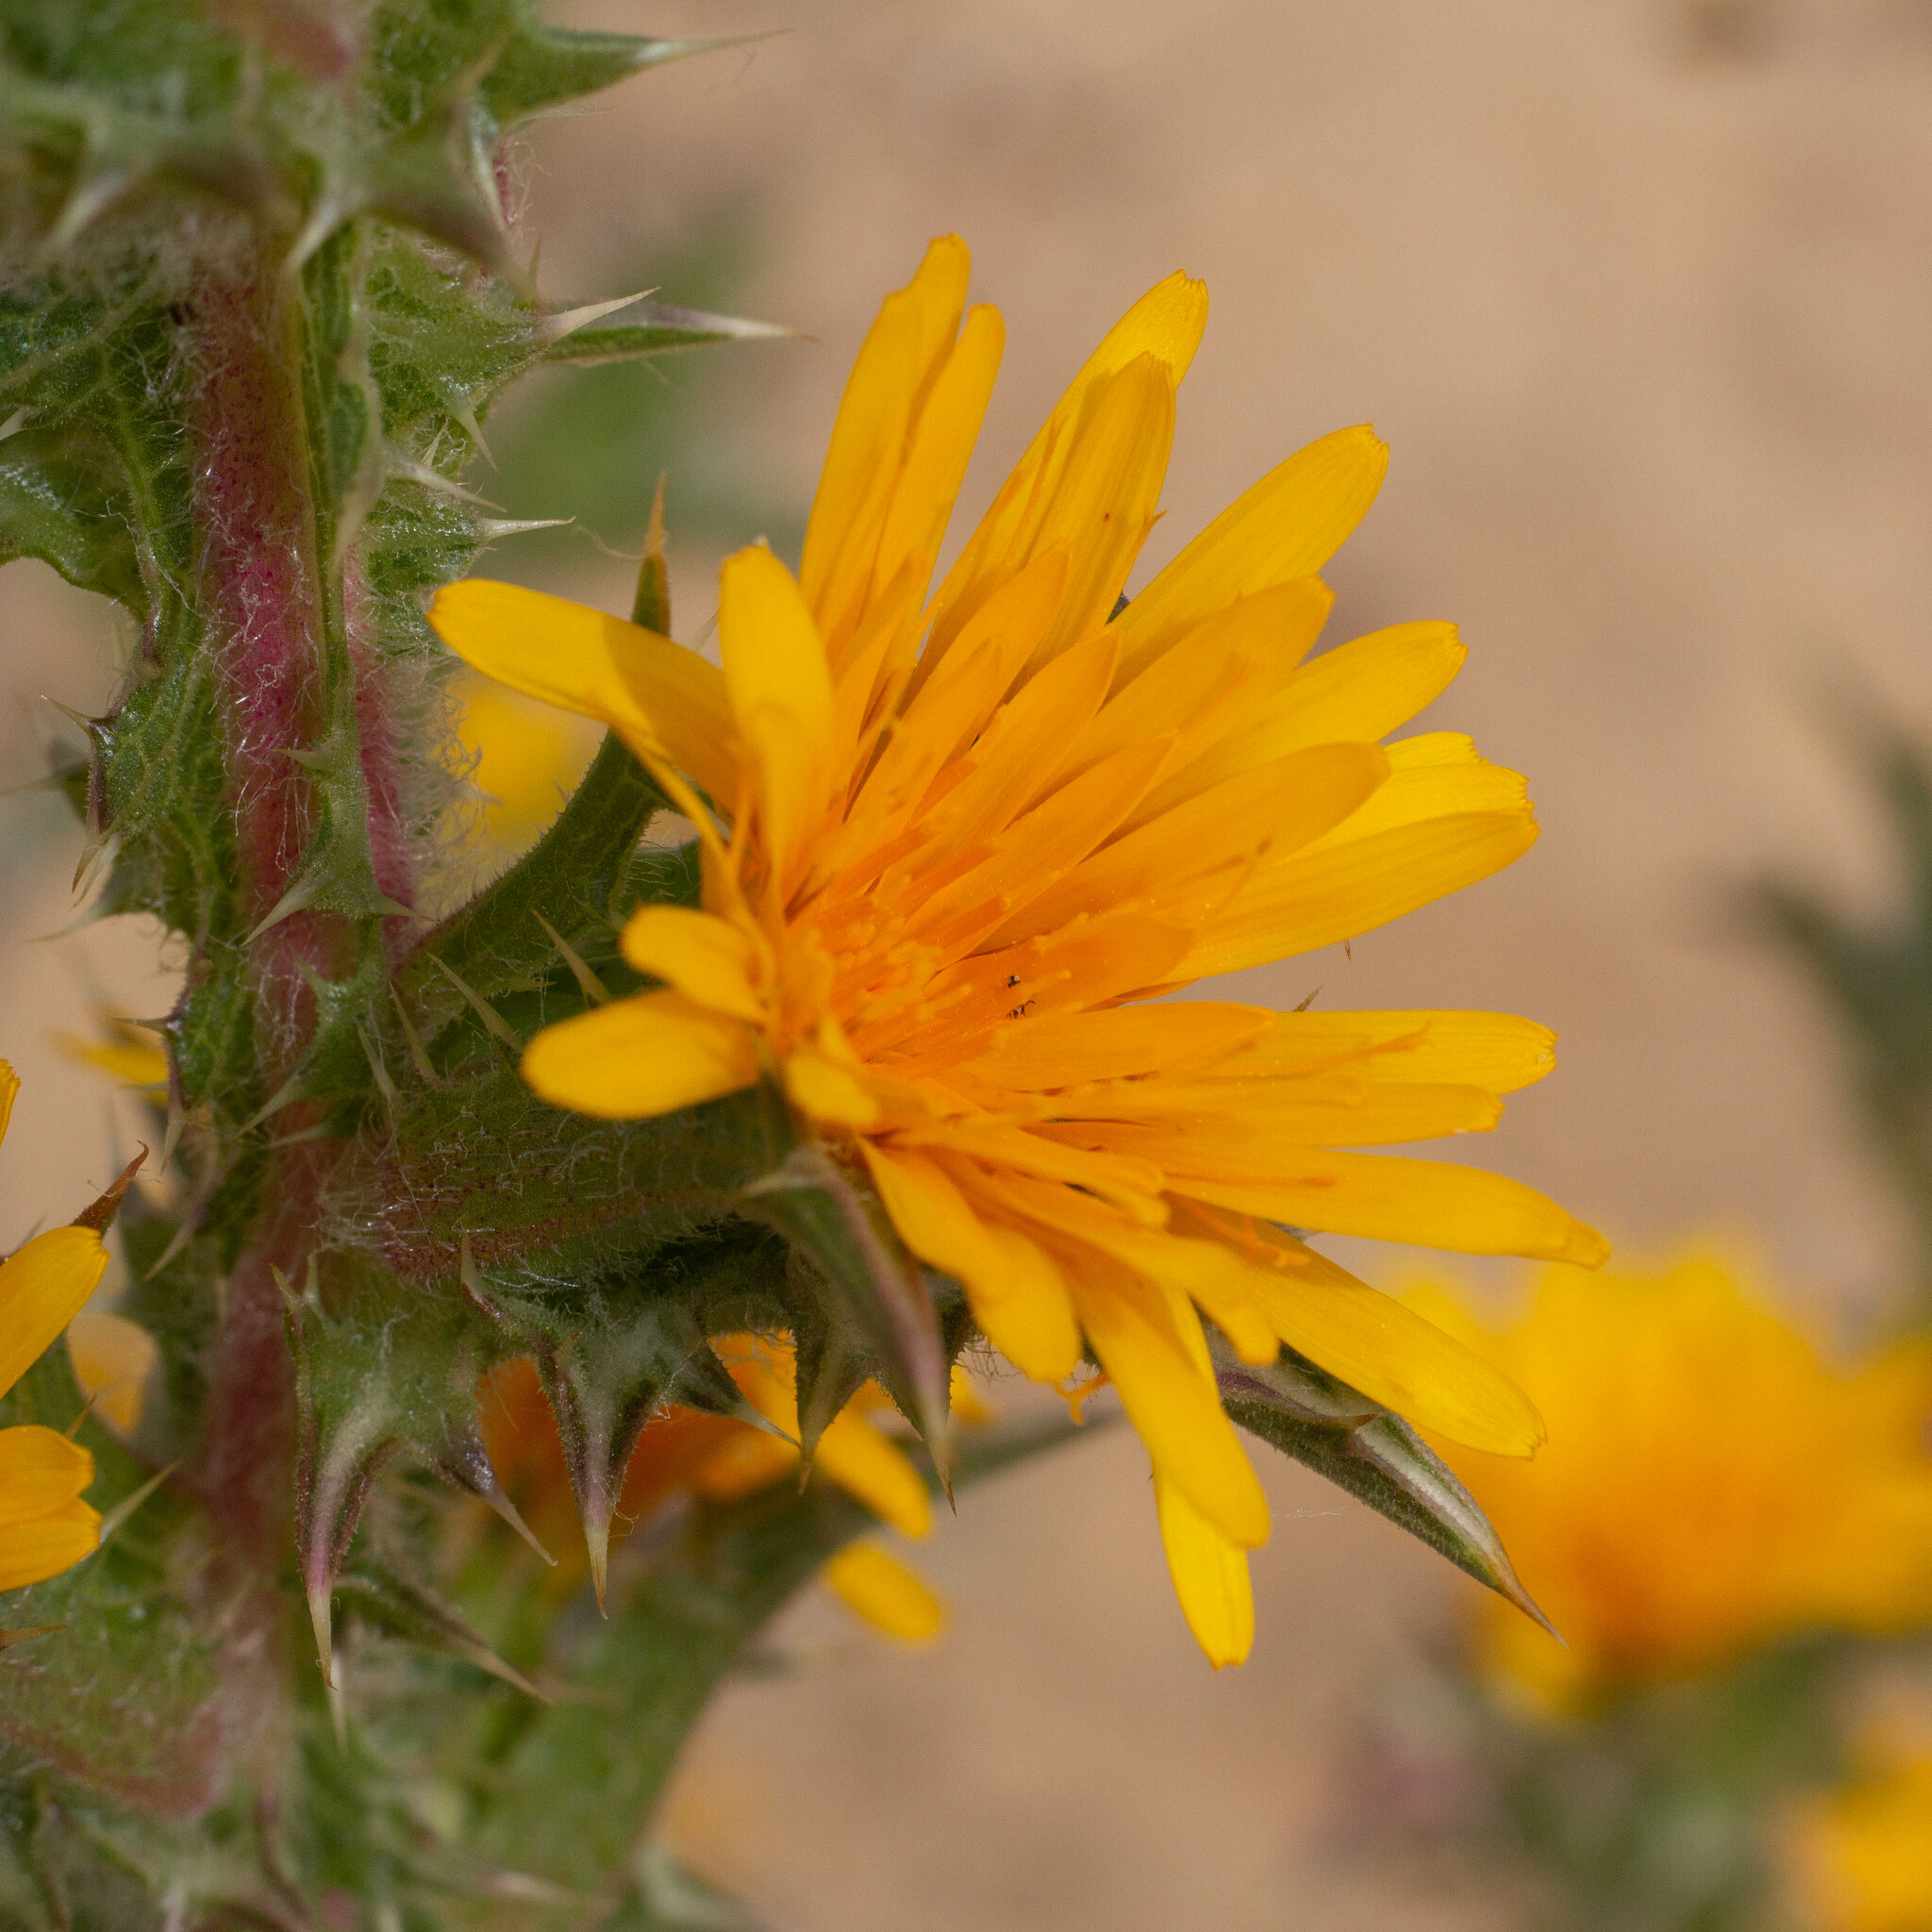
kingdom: Plantae
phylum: Tracheophyta
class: Magnoliopsida
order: Asterales
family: Asteraceae
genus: Scolymus
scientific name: Scolymus hispanicus
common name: Golden thistle
